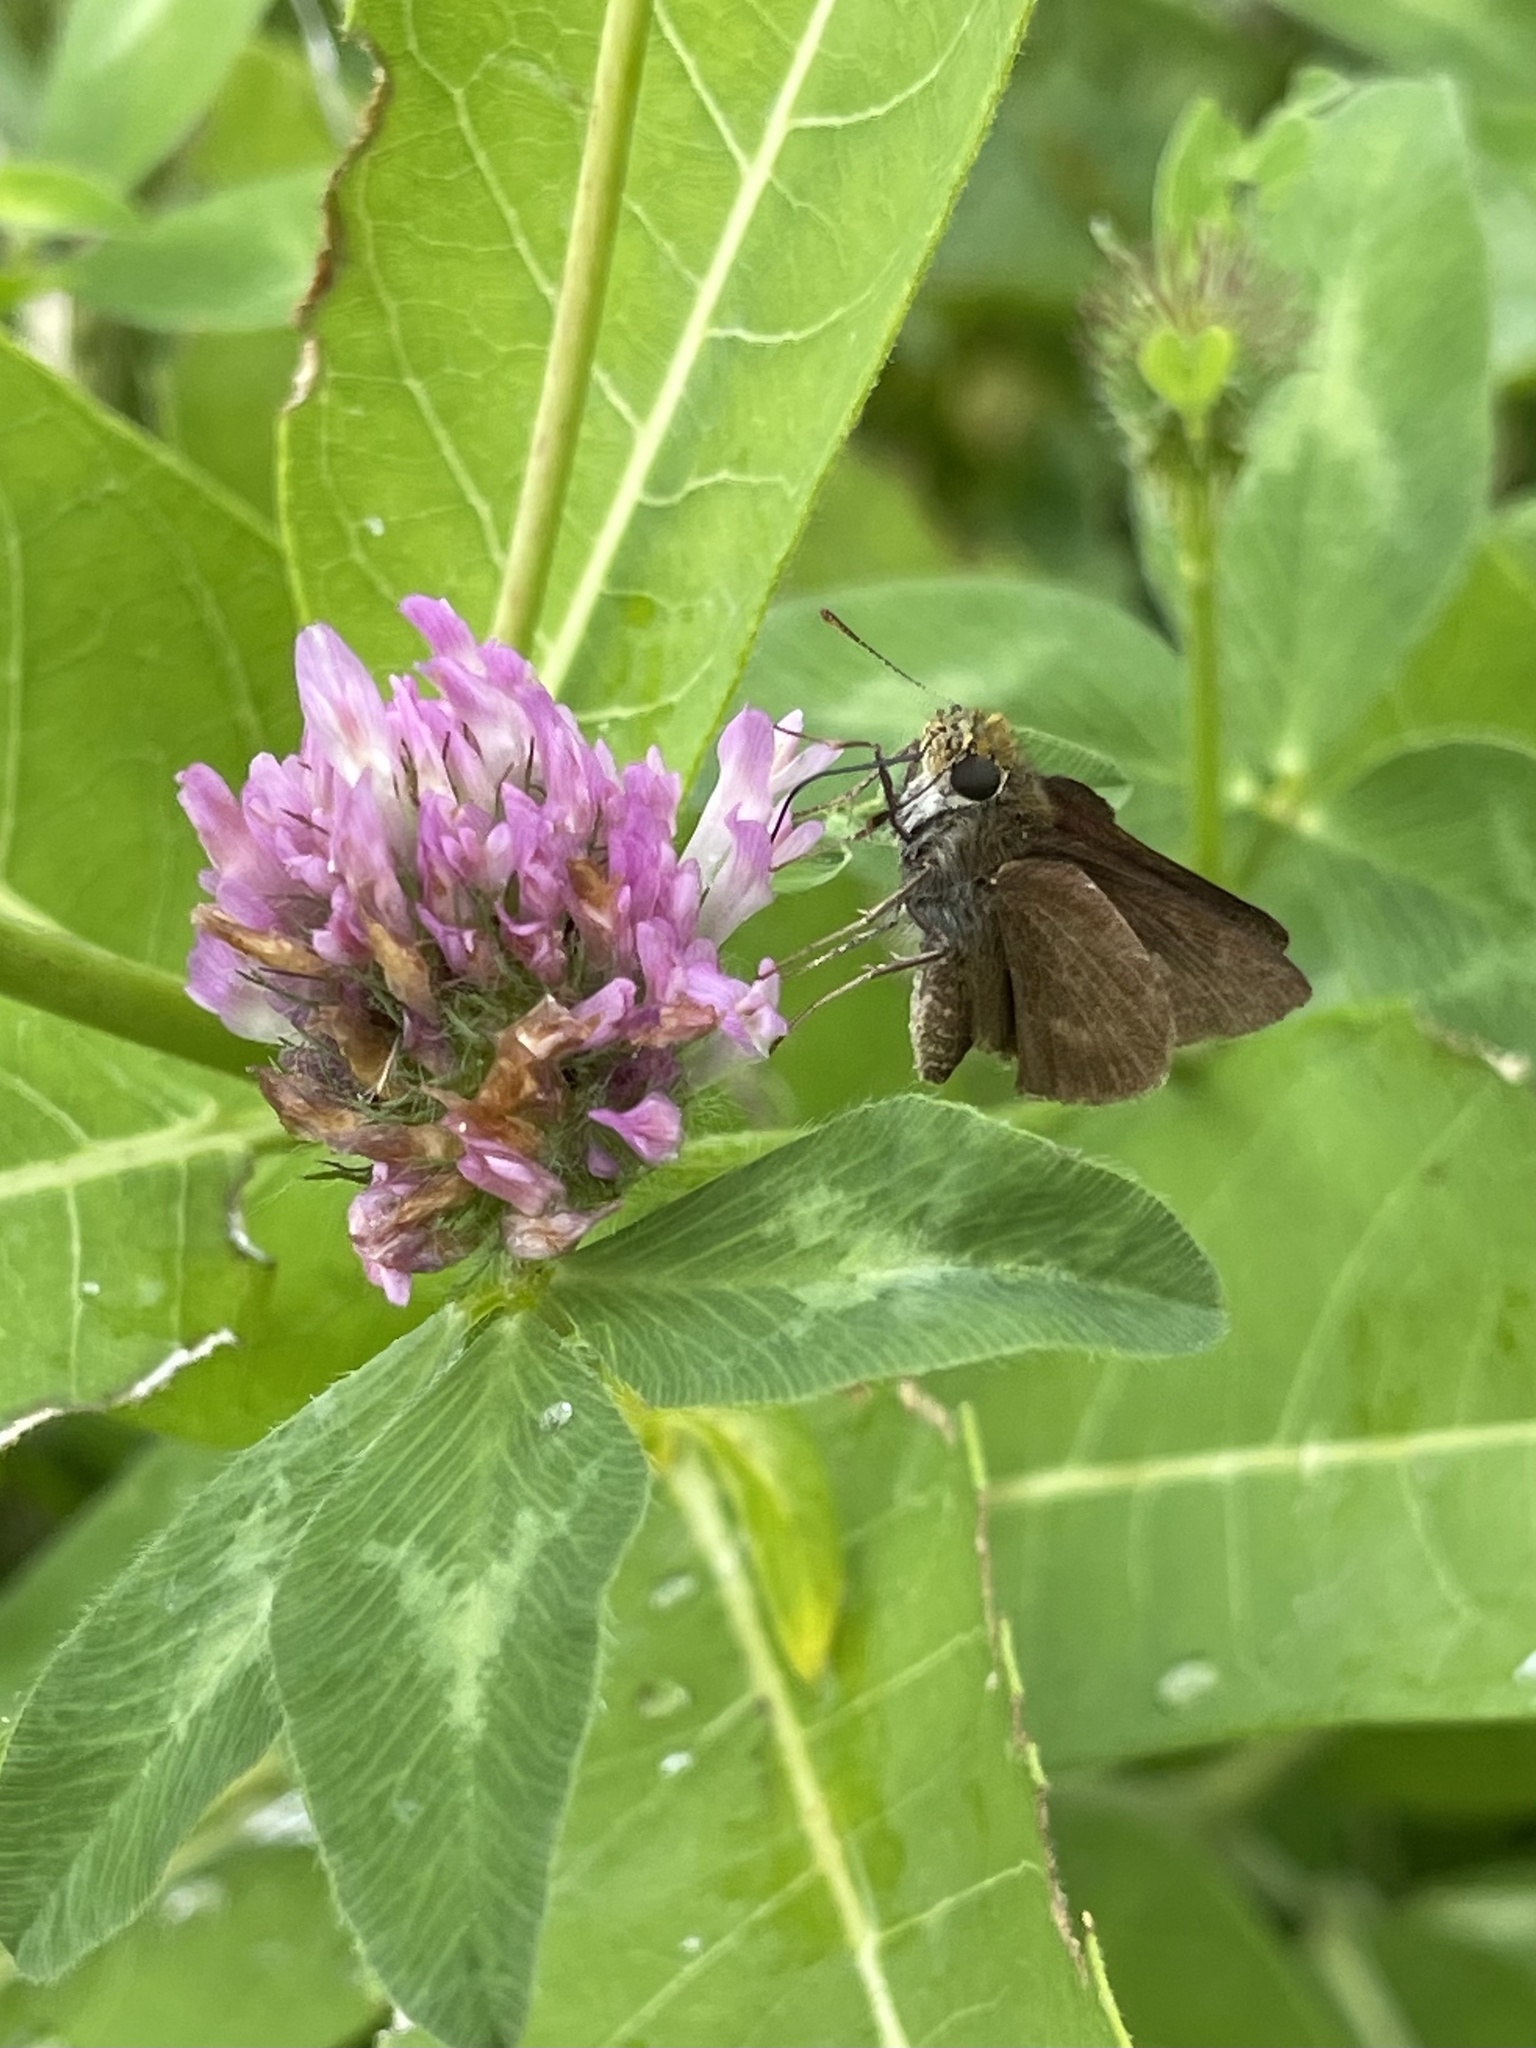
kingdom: Animalia
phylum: Arthropoda
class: Insecta
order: Lepidoptera
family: Hesperiidae
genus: Euphyes
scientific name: Euphyes vestris
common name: Dun skipper
